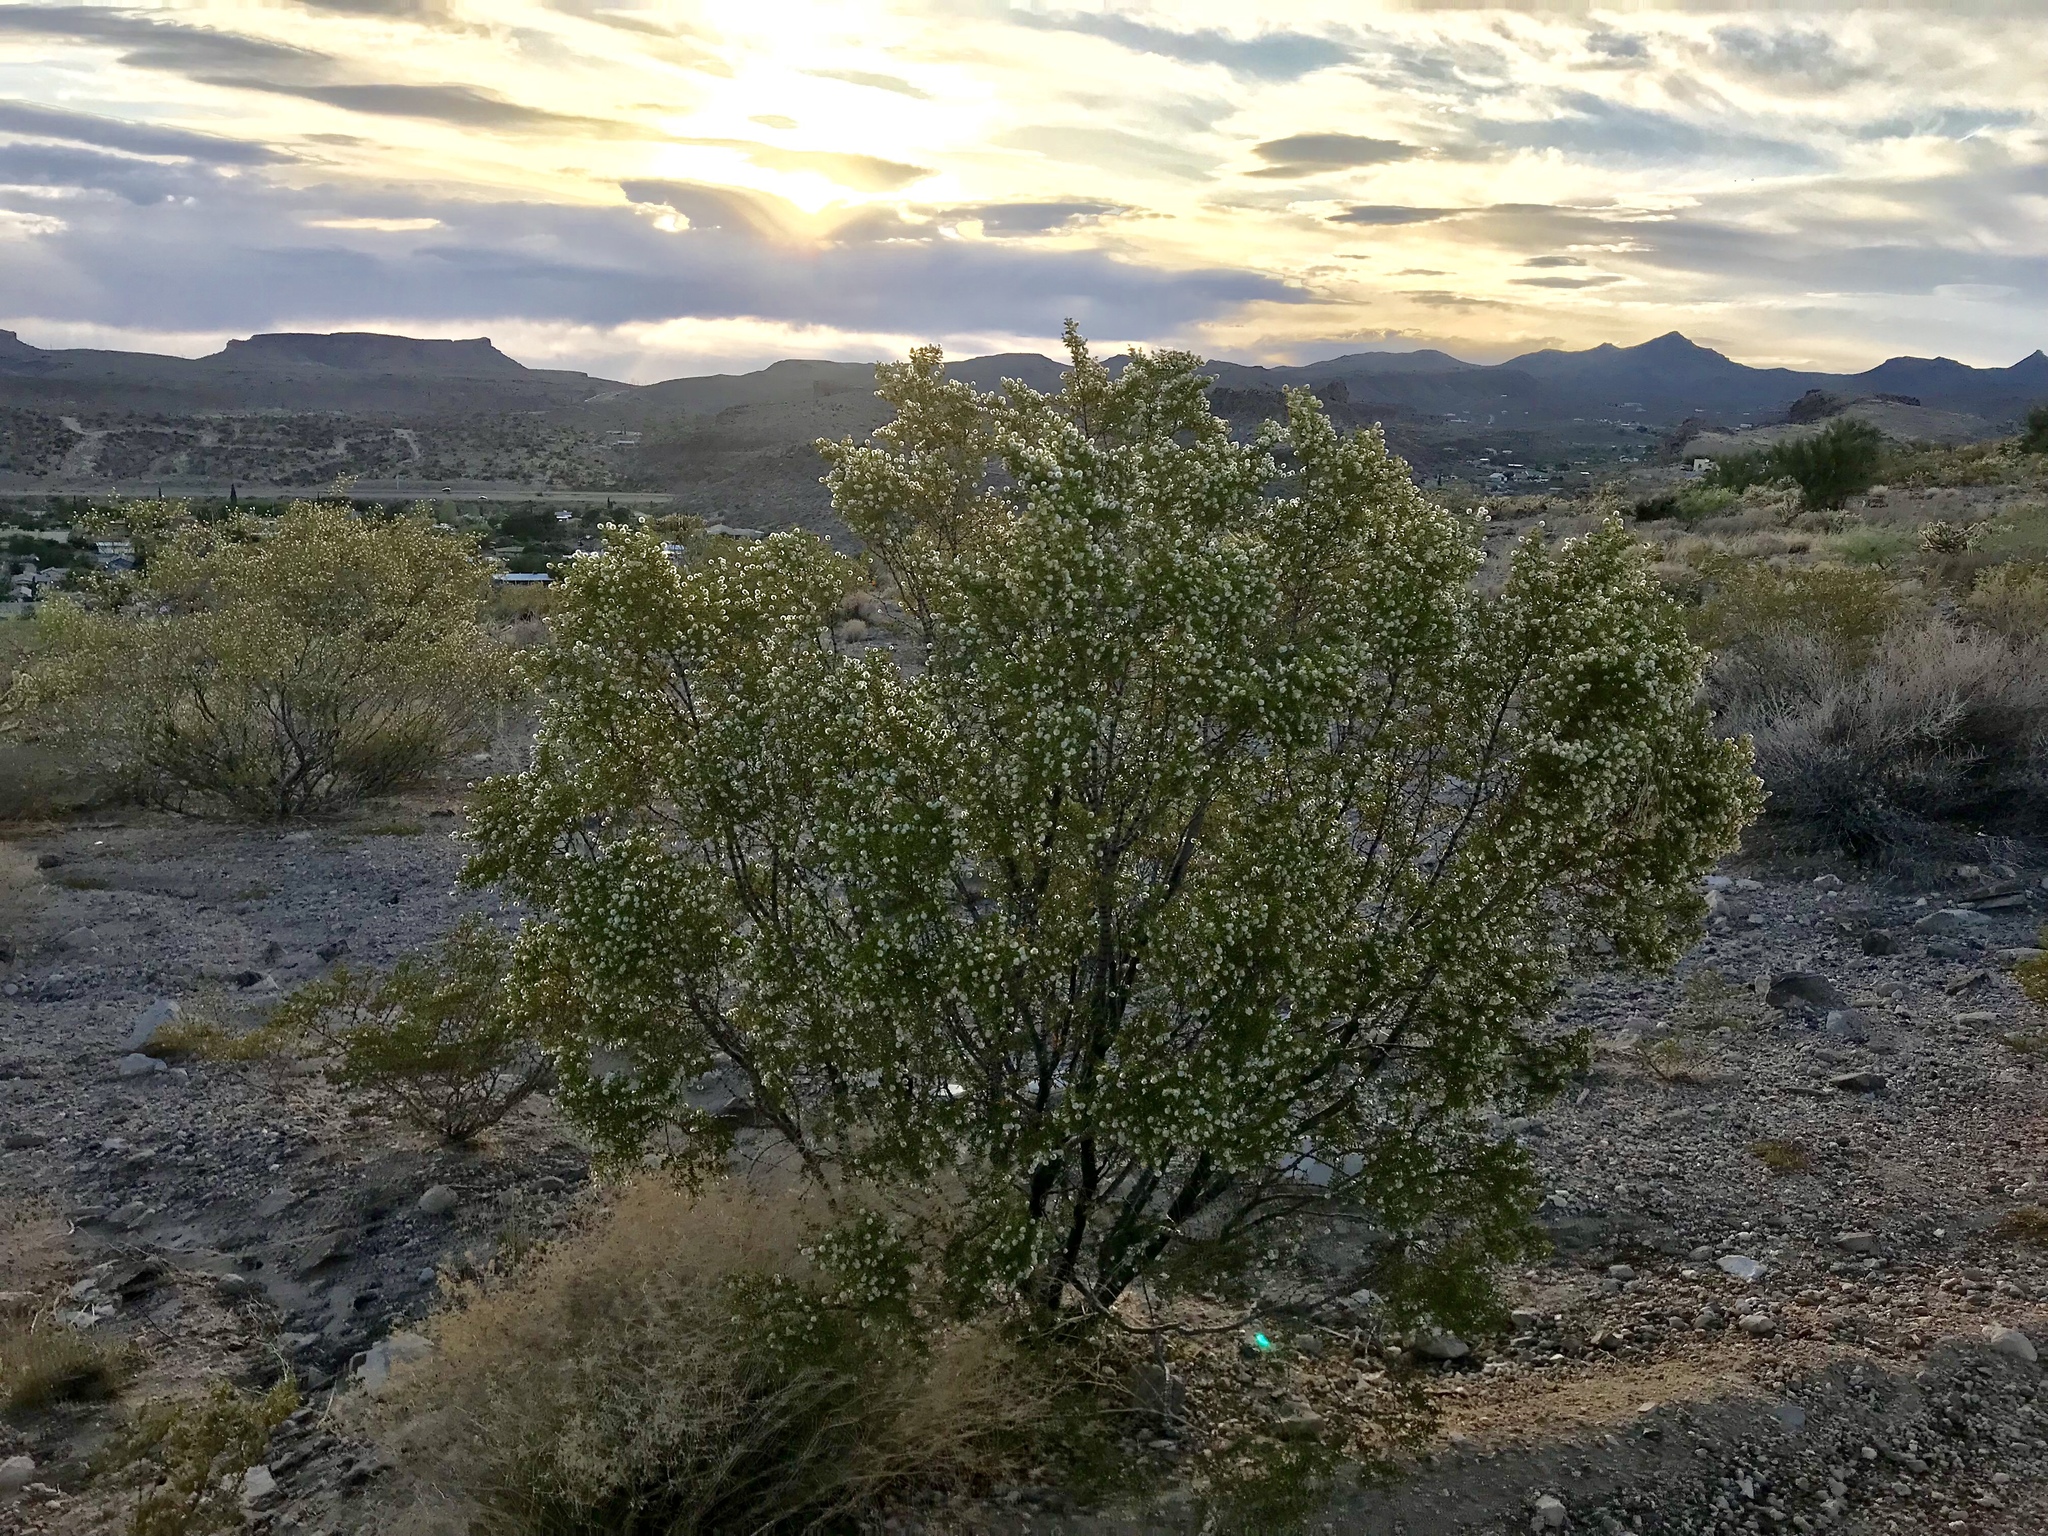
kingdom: Plantae
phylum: Tracheophyta
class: Magnoliopsida
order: Zygophyllales
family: Zygophyllaceae
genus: Larrea
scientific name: Larrea tridentata
